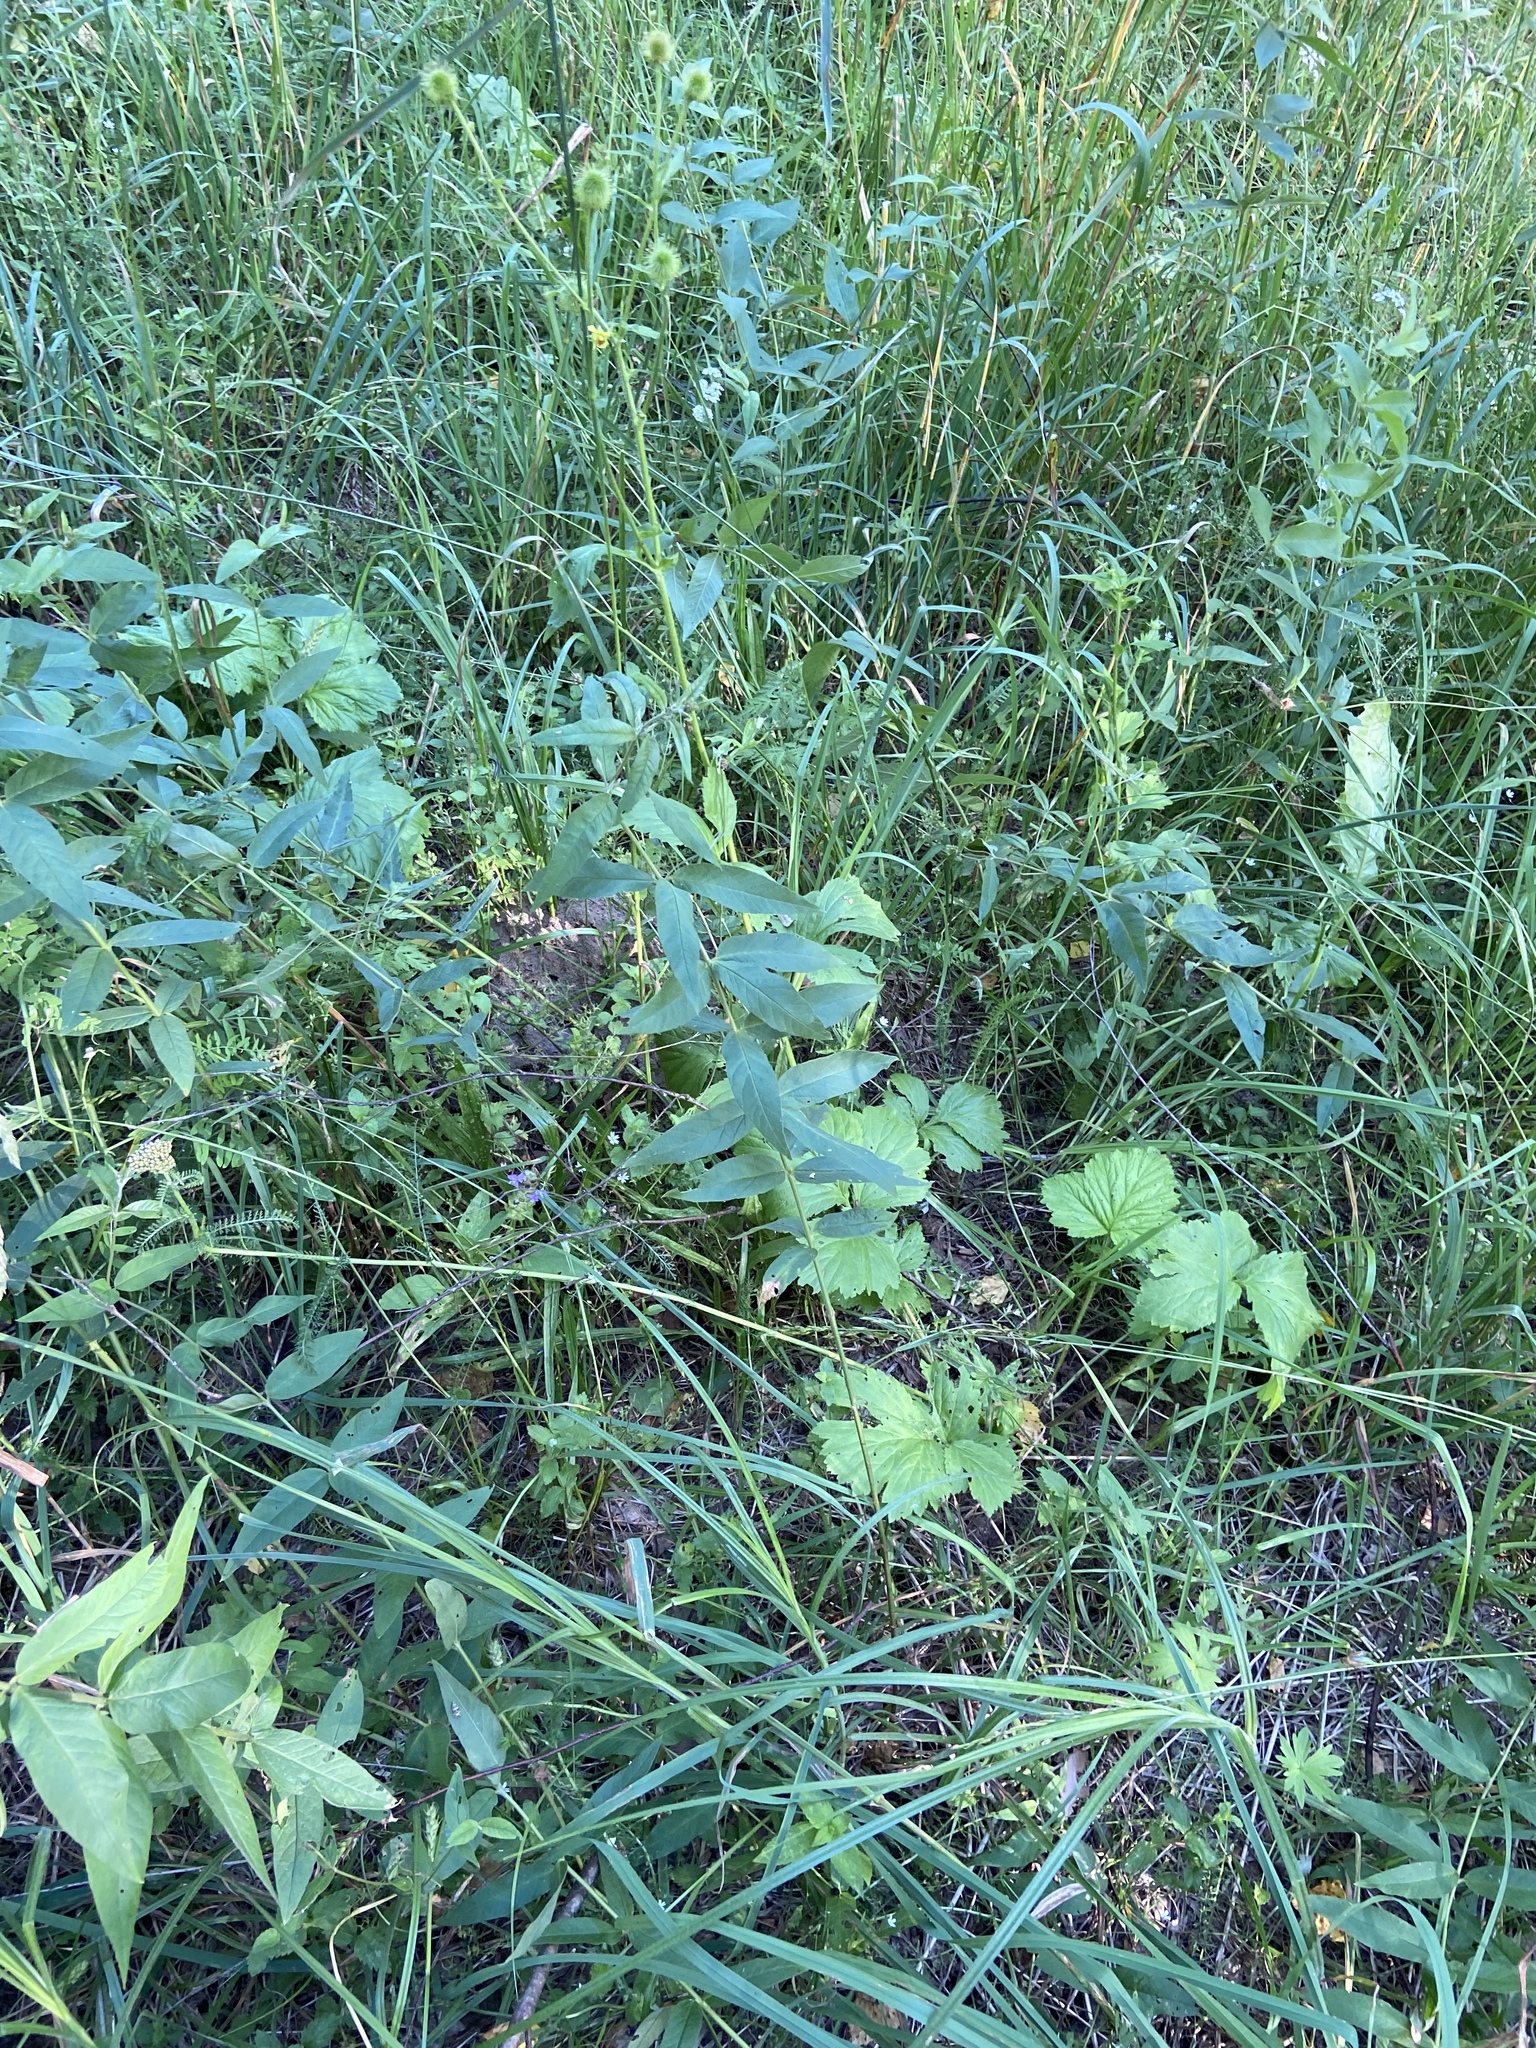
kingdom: Plantae
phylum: Tracheophyta
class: Magnoliopsida
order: Ericales
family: Primulaceae
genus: Lysimachia
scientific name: Lysimachia vulgaris
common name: Yellow loosestrife
